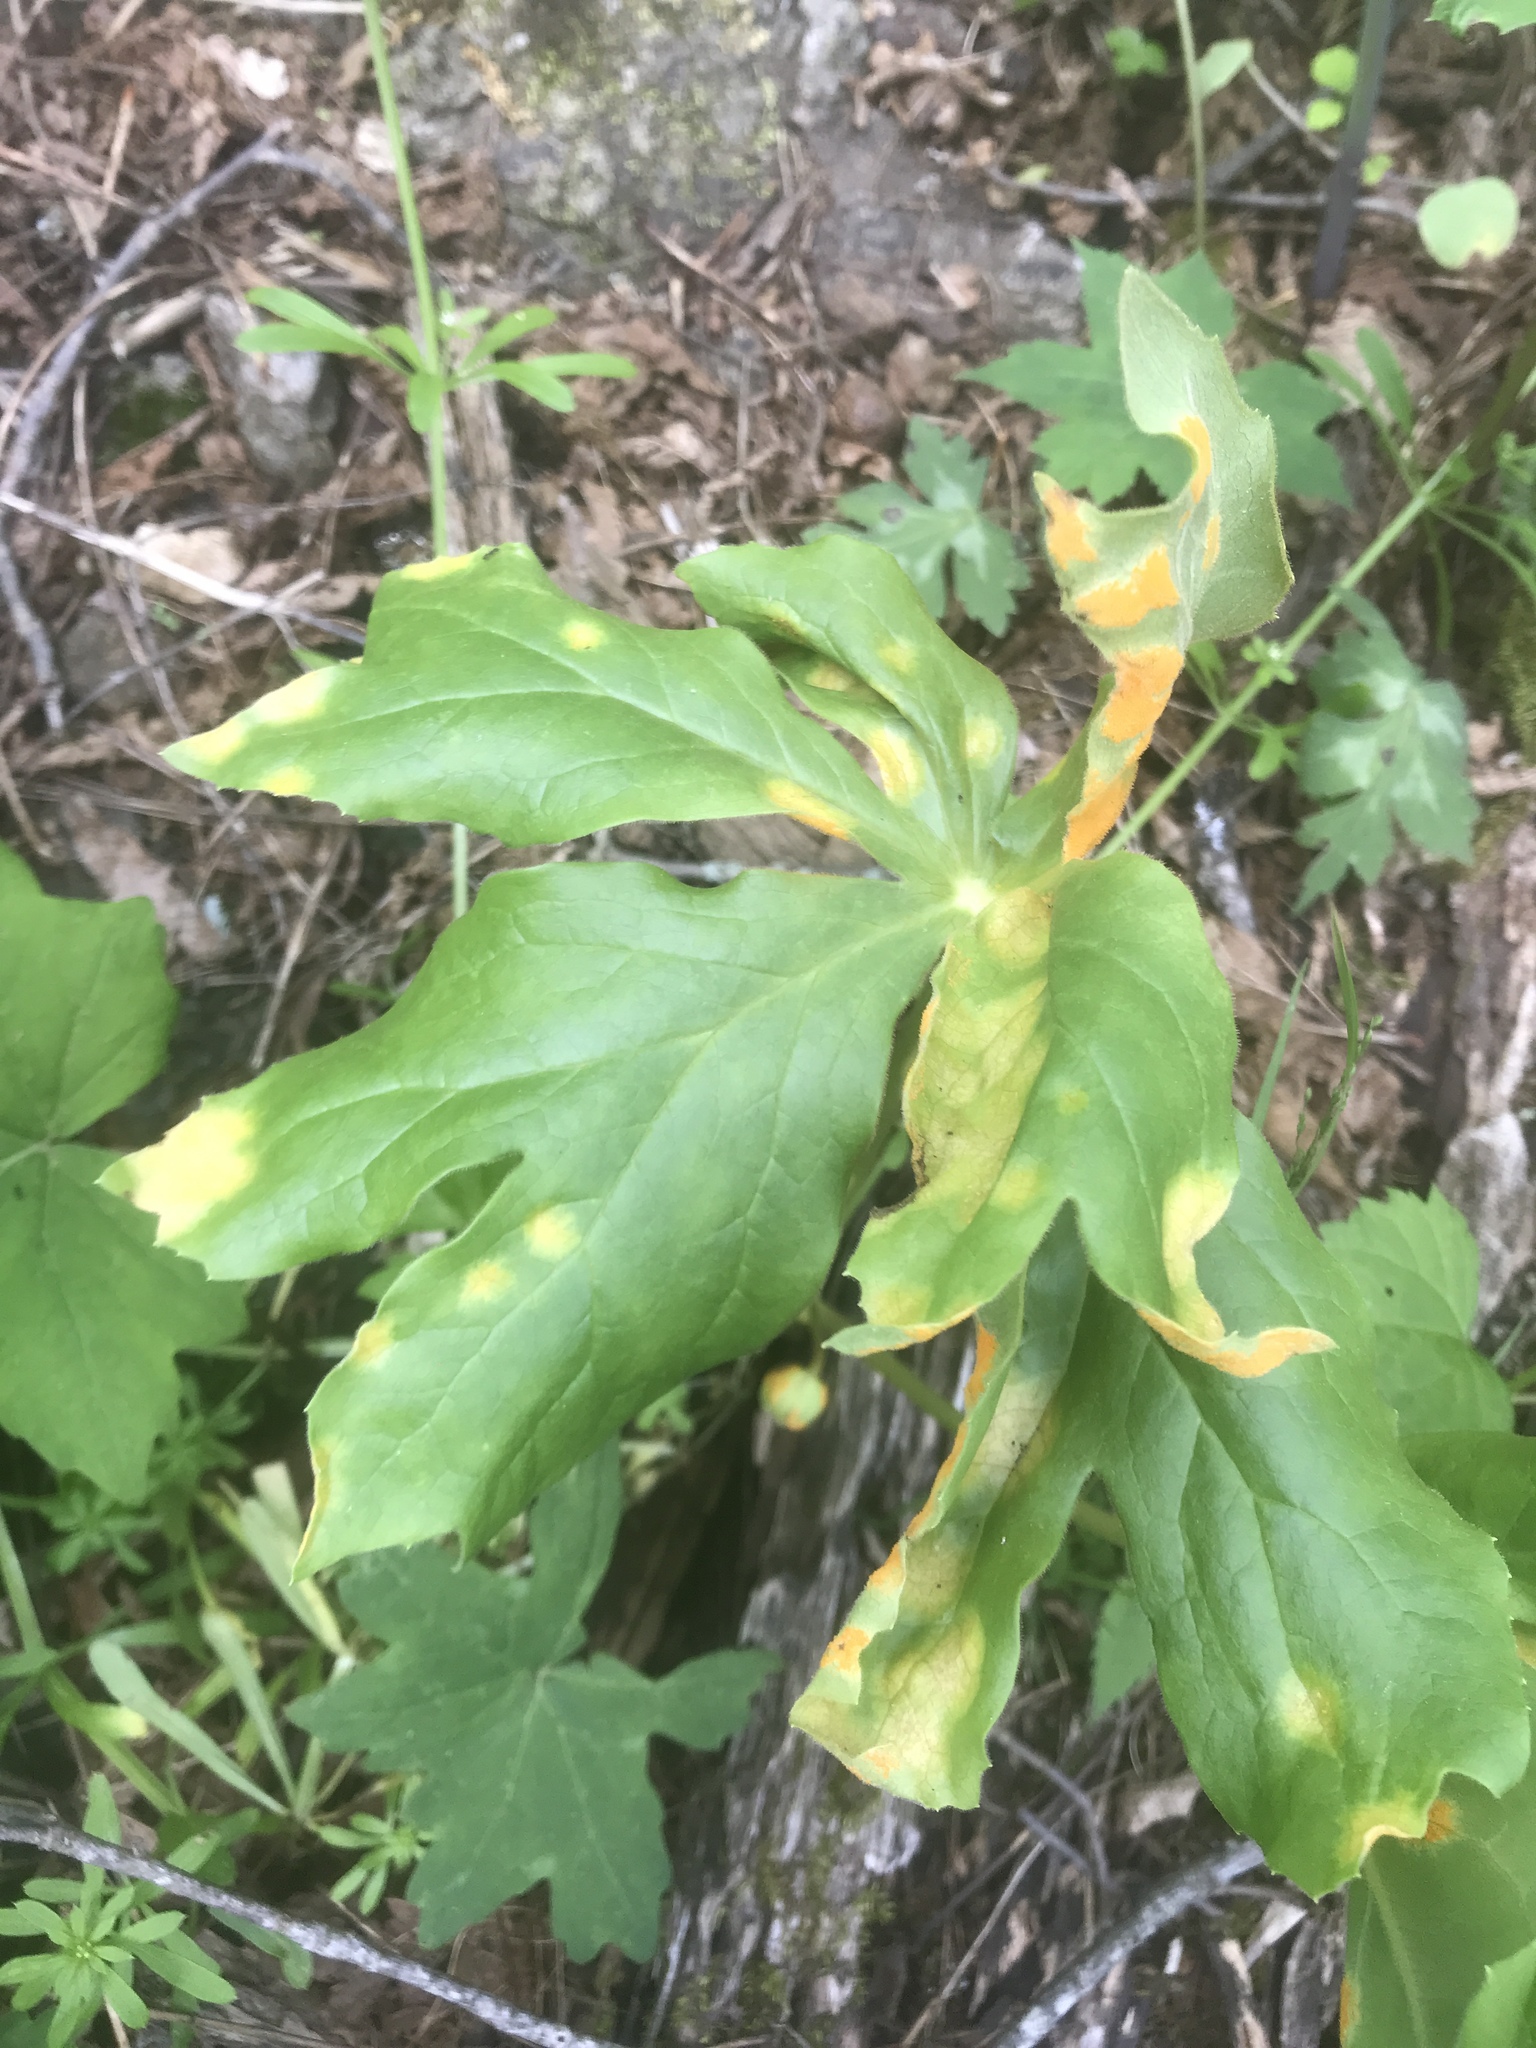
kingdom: Fungi
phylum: Basidiomycota
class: Pucciniomycetes
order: Pucciniales
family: Pucciniaceae
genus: Puccinia
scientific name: Puccinia podophylli
